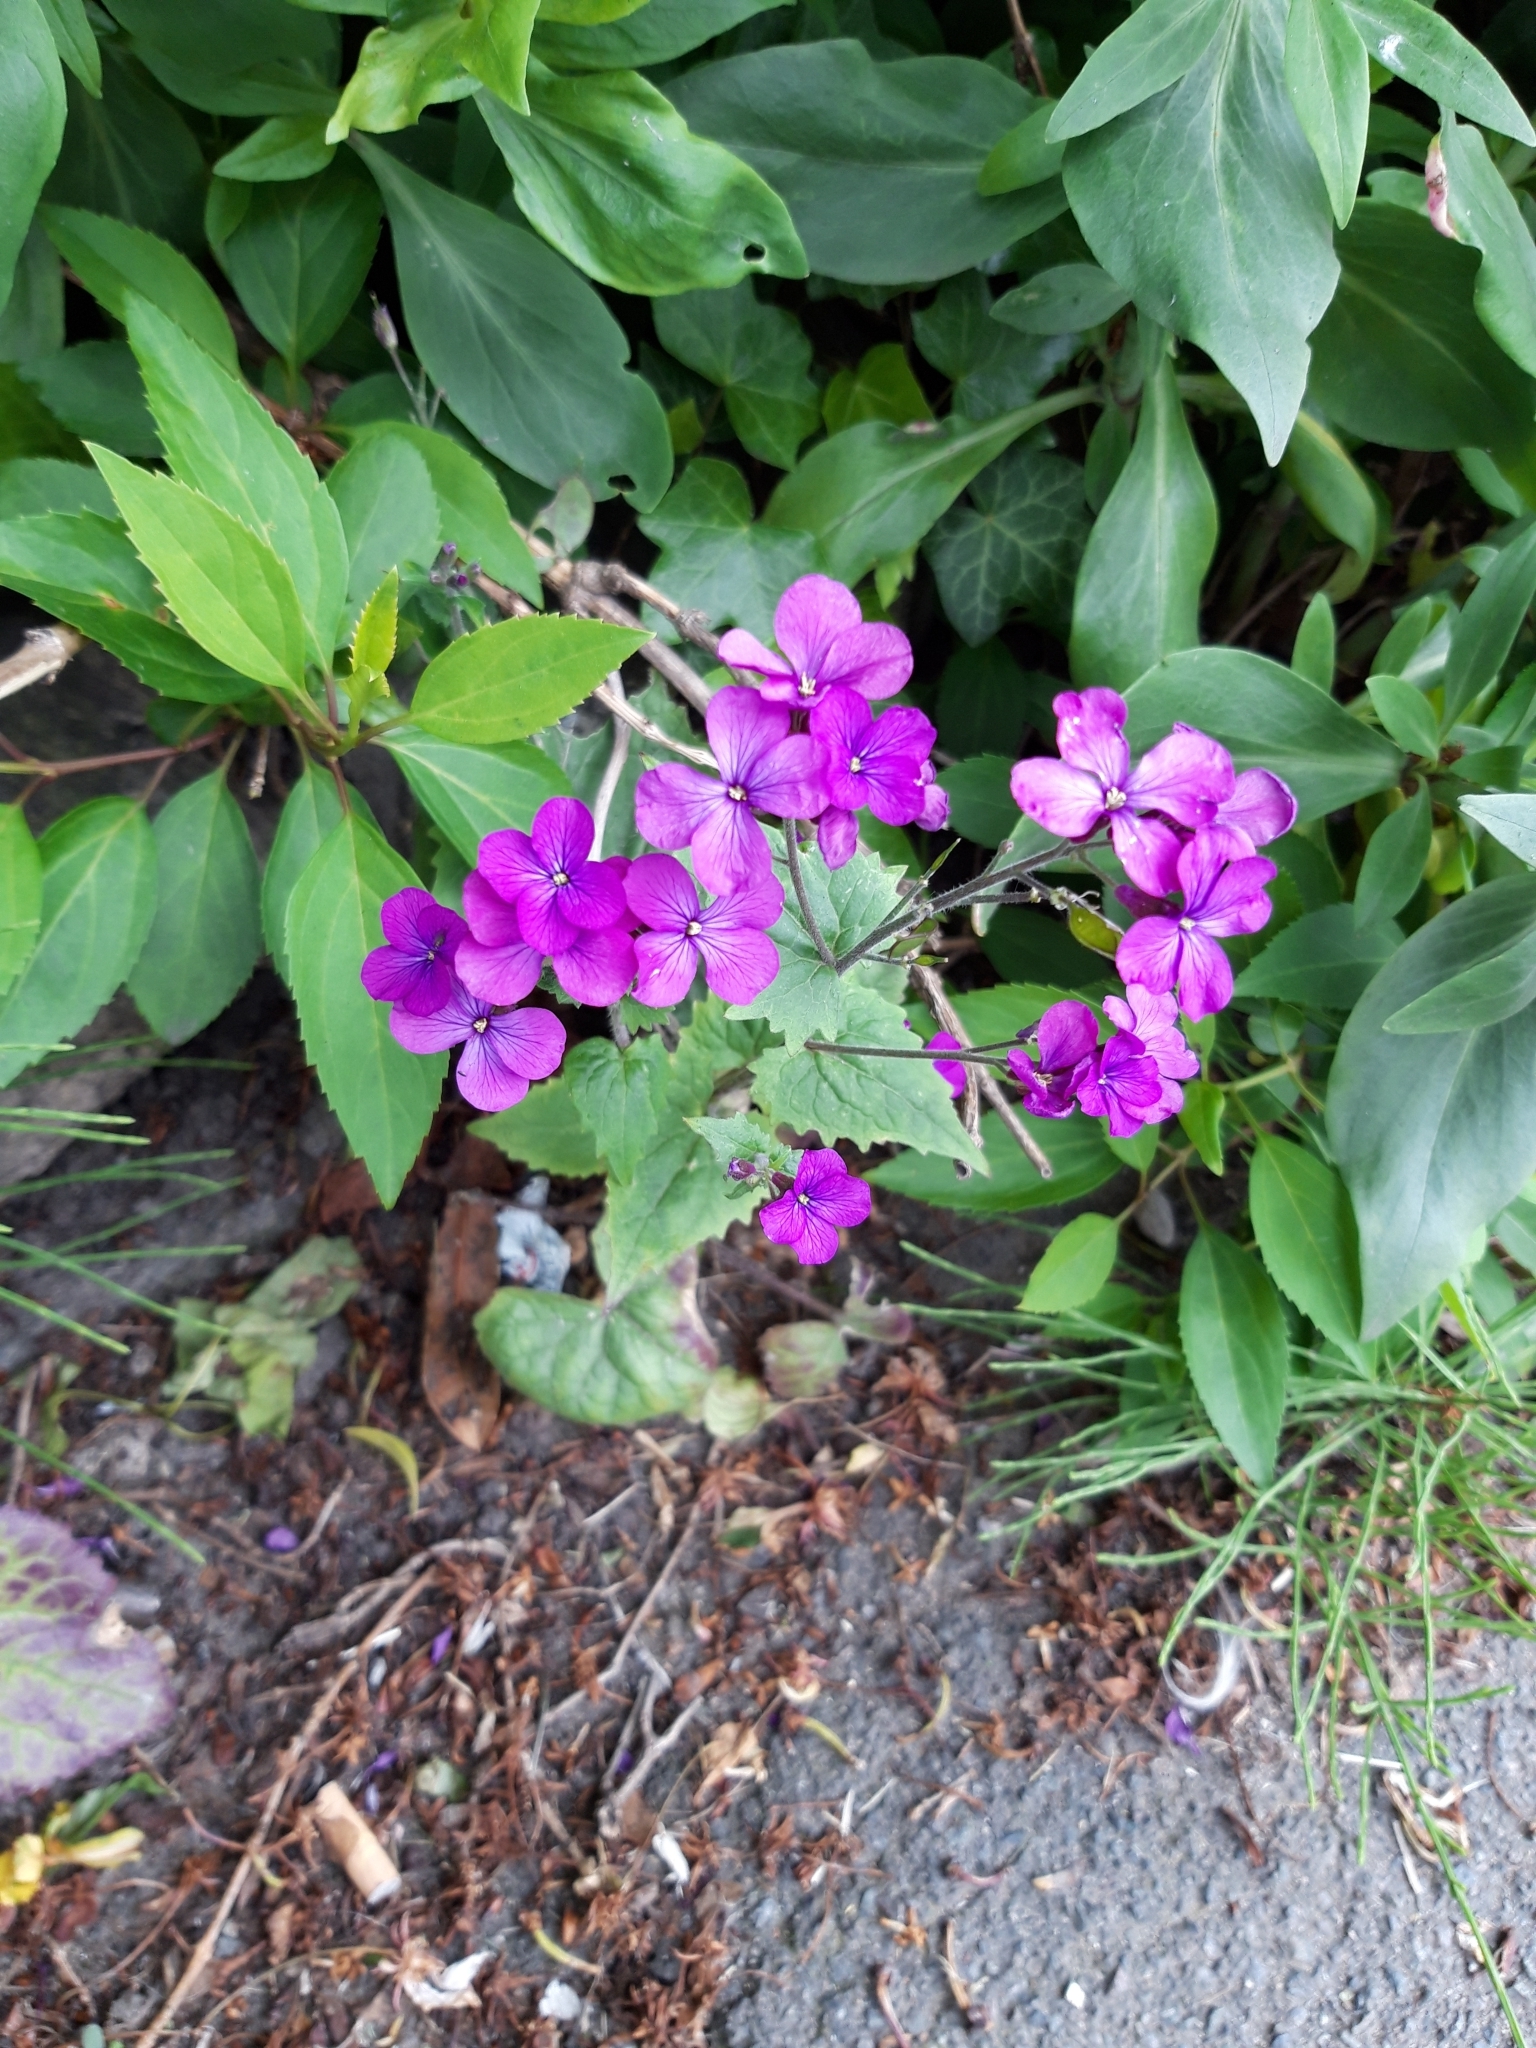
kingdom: Plantae
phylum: Tracheophyta
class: Magnoliopsida
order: Brassicales
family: Brassicaceae
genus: Lunaria
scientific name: Lunaria annua
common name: Honesty
